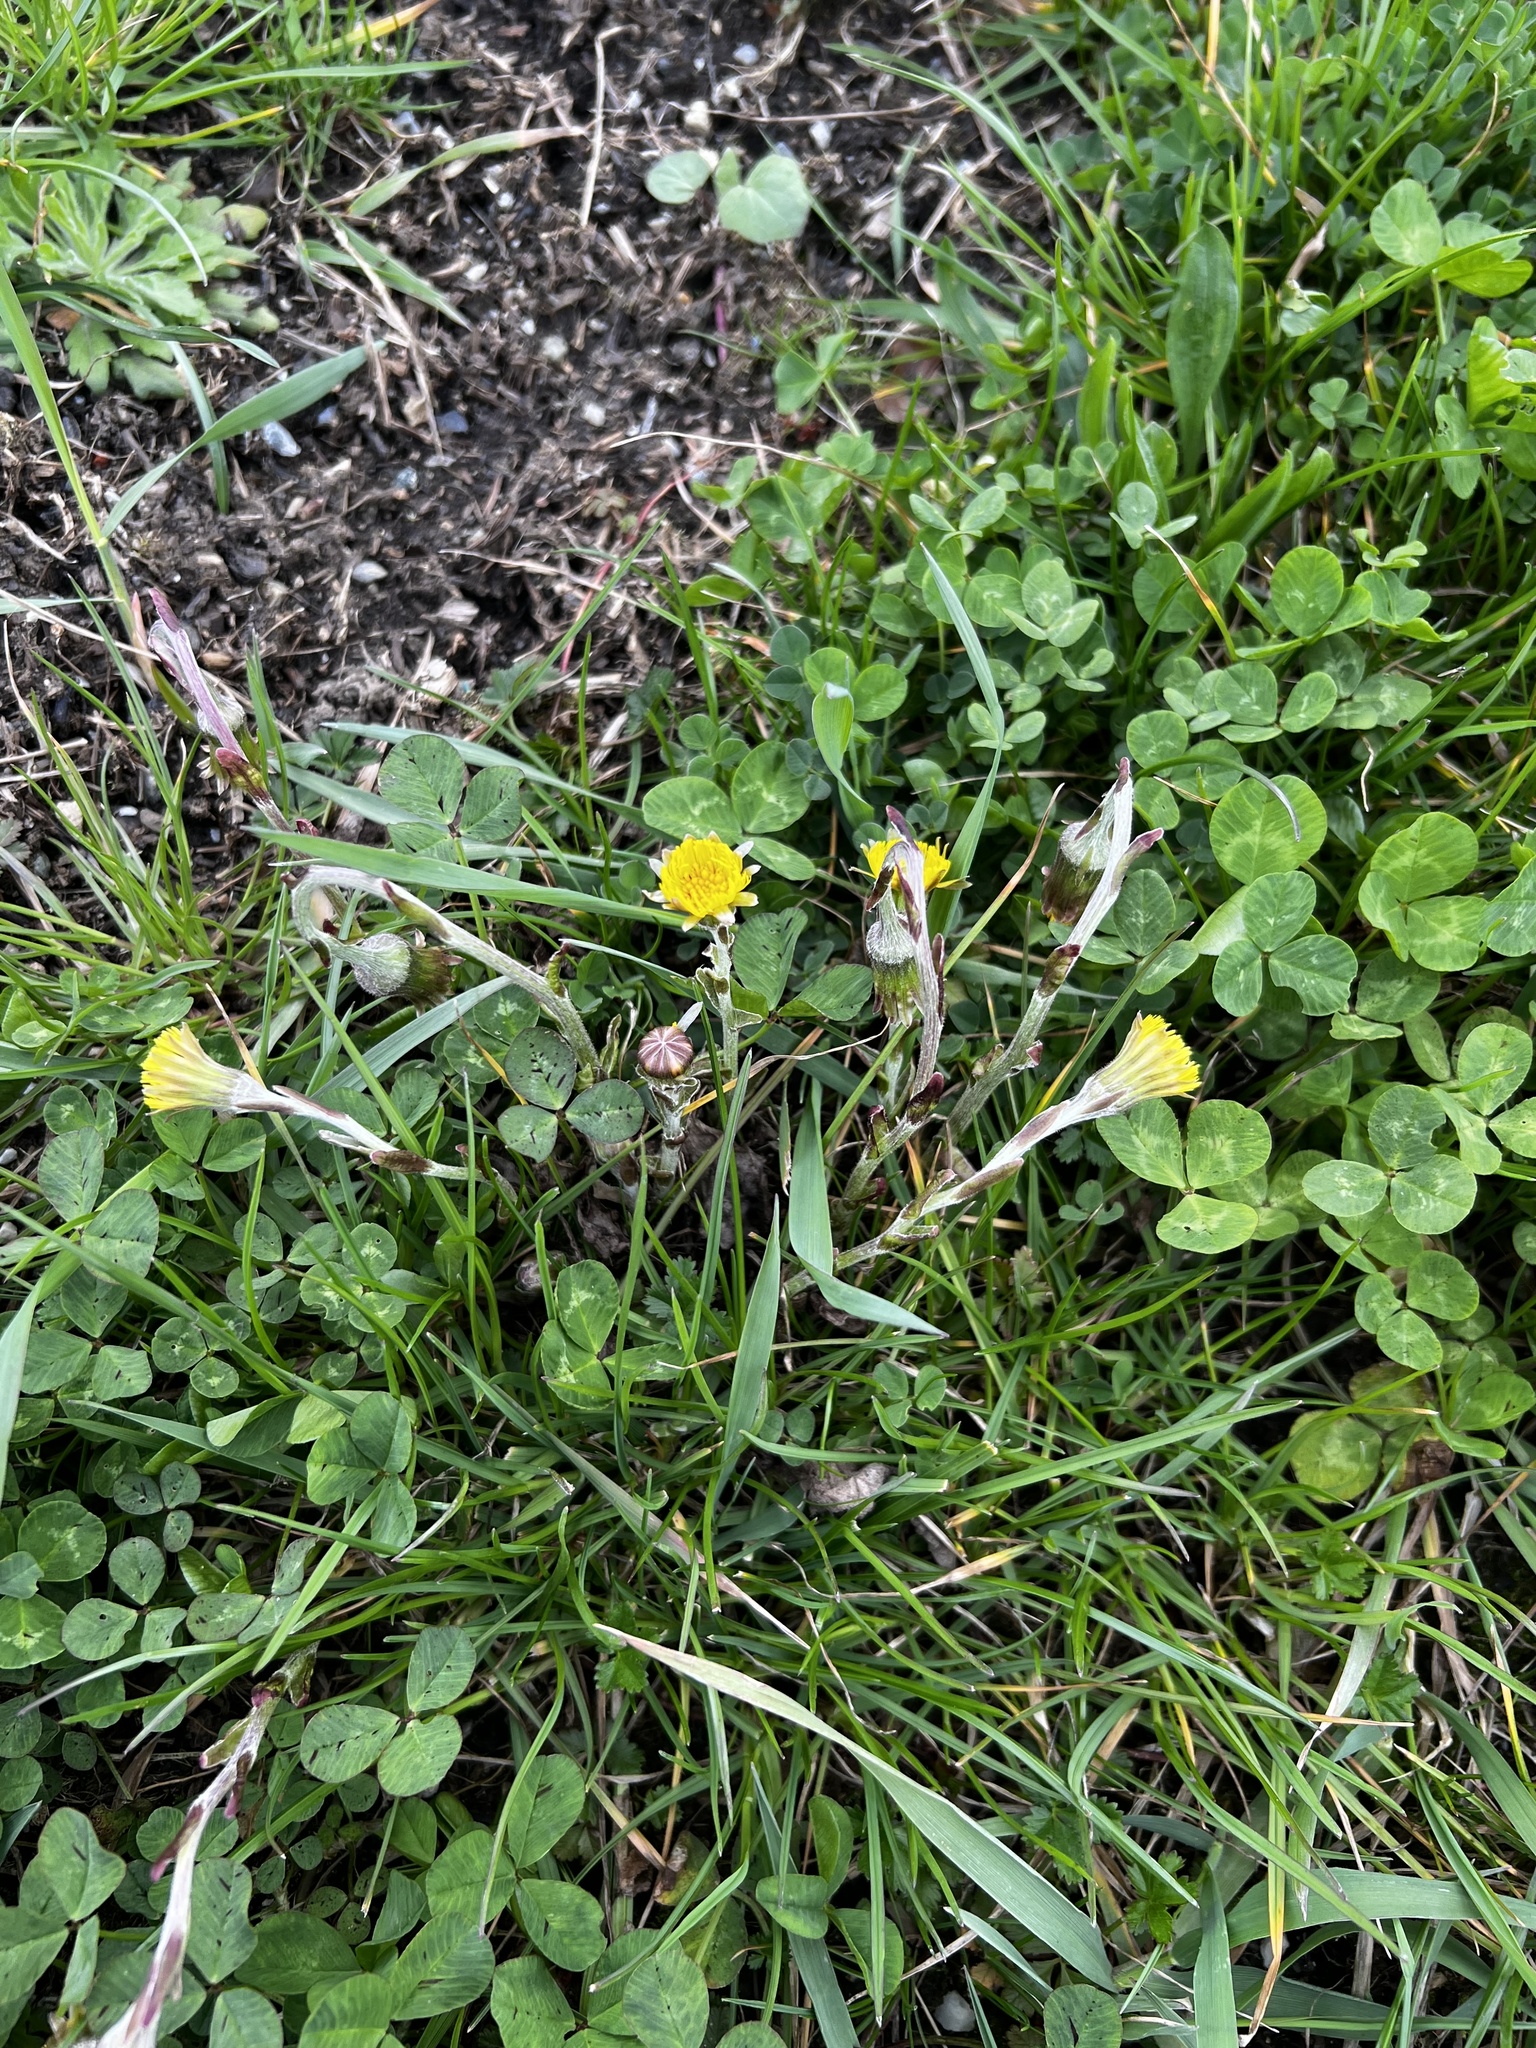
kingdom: Plantae
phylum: Tracheophyta
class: Magnoliopsida
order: Asterales
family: Asteraceae
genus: Tussilago
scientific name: Tussilago farfara
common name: Coltsfoot
